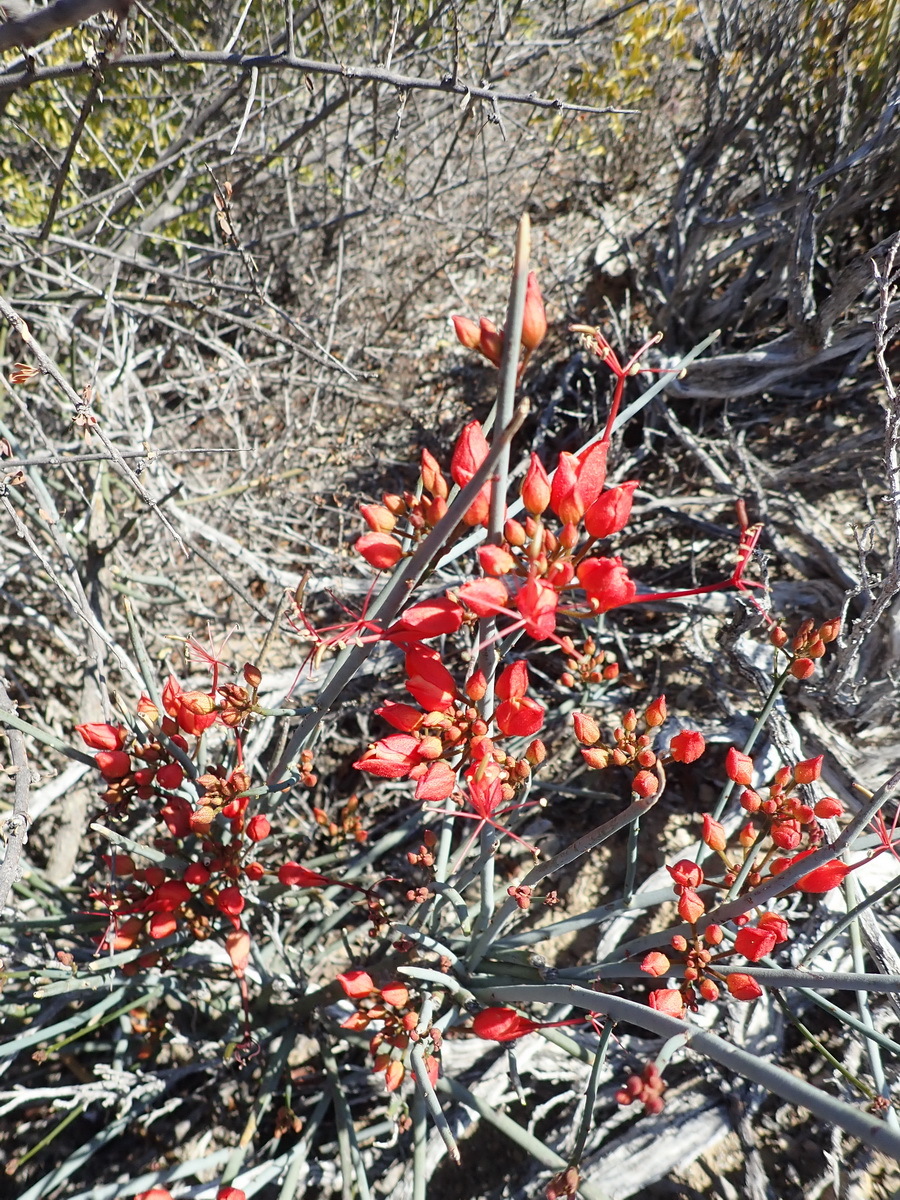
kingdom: Plantae
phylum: Tracheophyta
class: Magnoliopsida
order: Brassicales
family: Capparaceae
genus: Cadaba
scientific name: Cadaba aphylla
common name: Black storm
